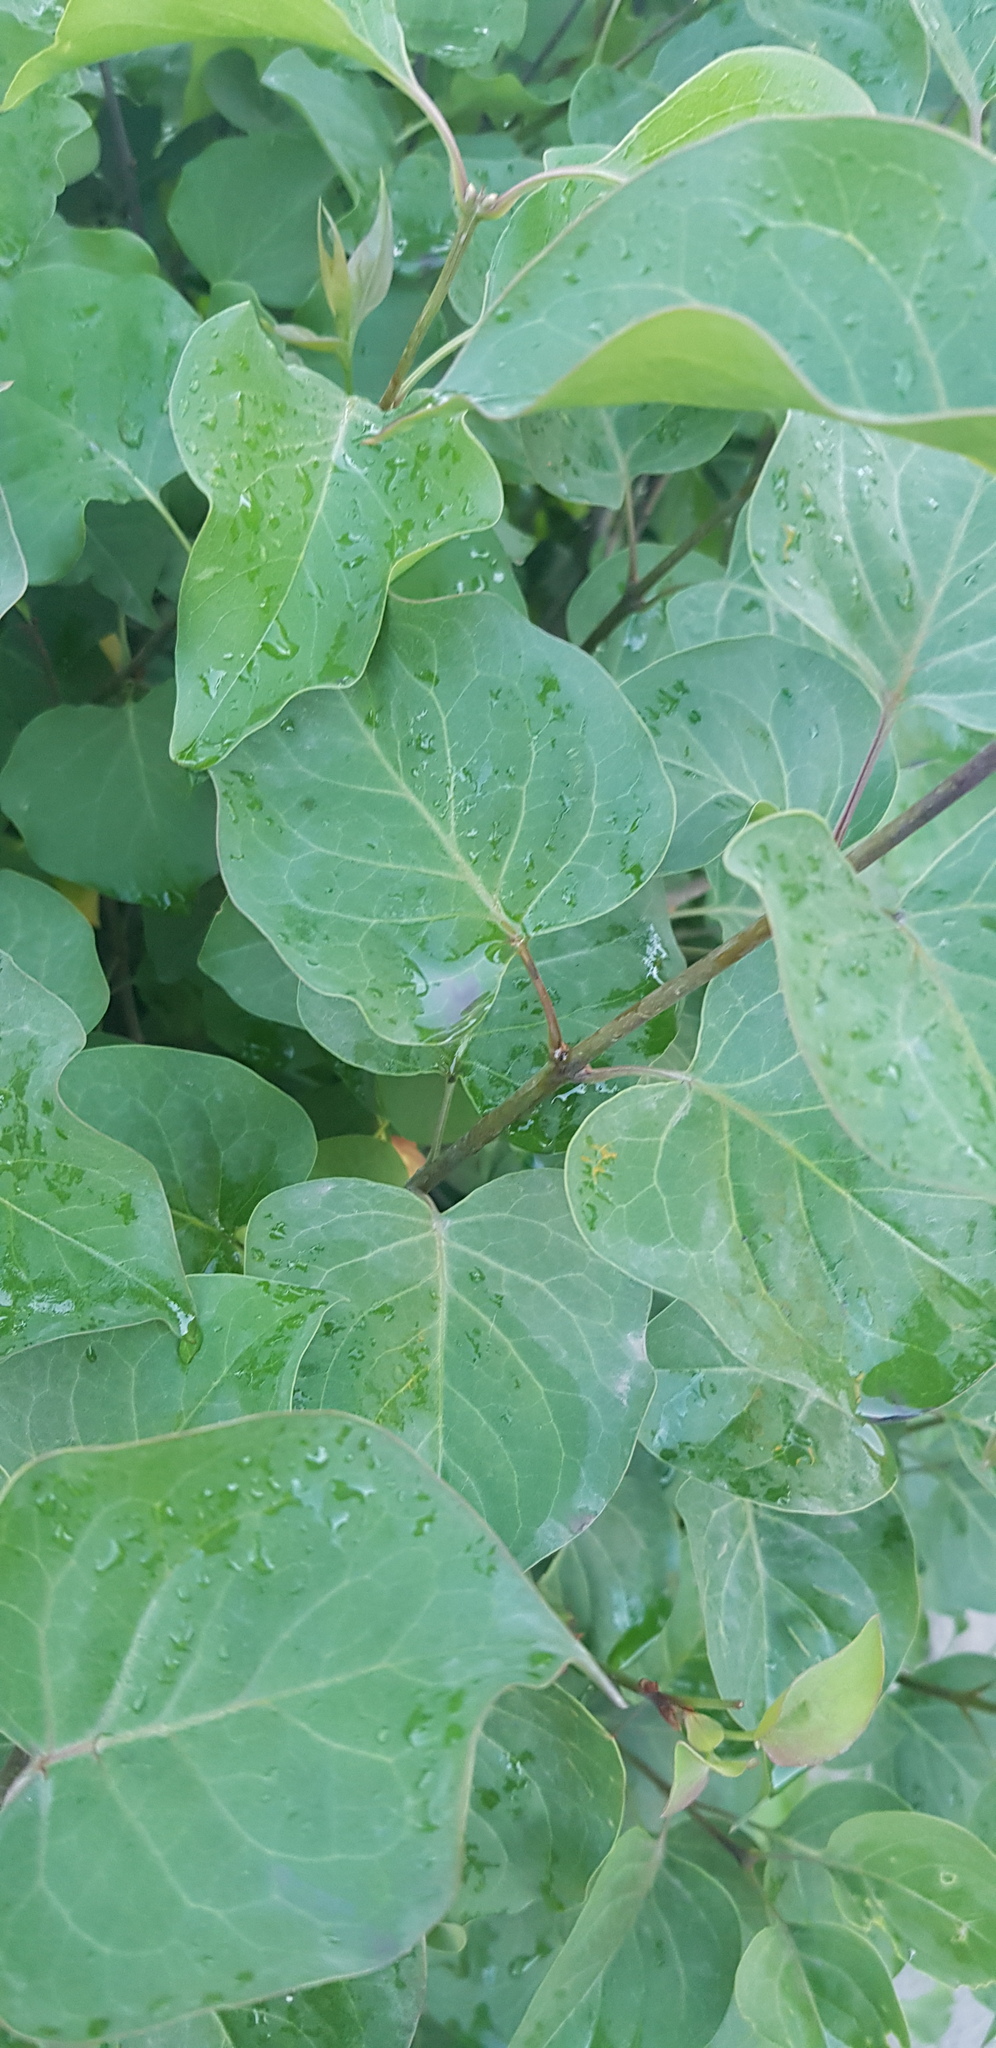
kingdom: Plantae
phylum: Tracheophyta
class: Magnoliopsida
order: Lamiales
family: Oleaceae
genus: Syringa
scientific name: Syringa vulgaris
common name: Common lilac
